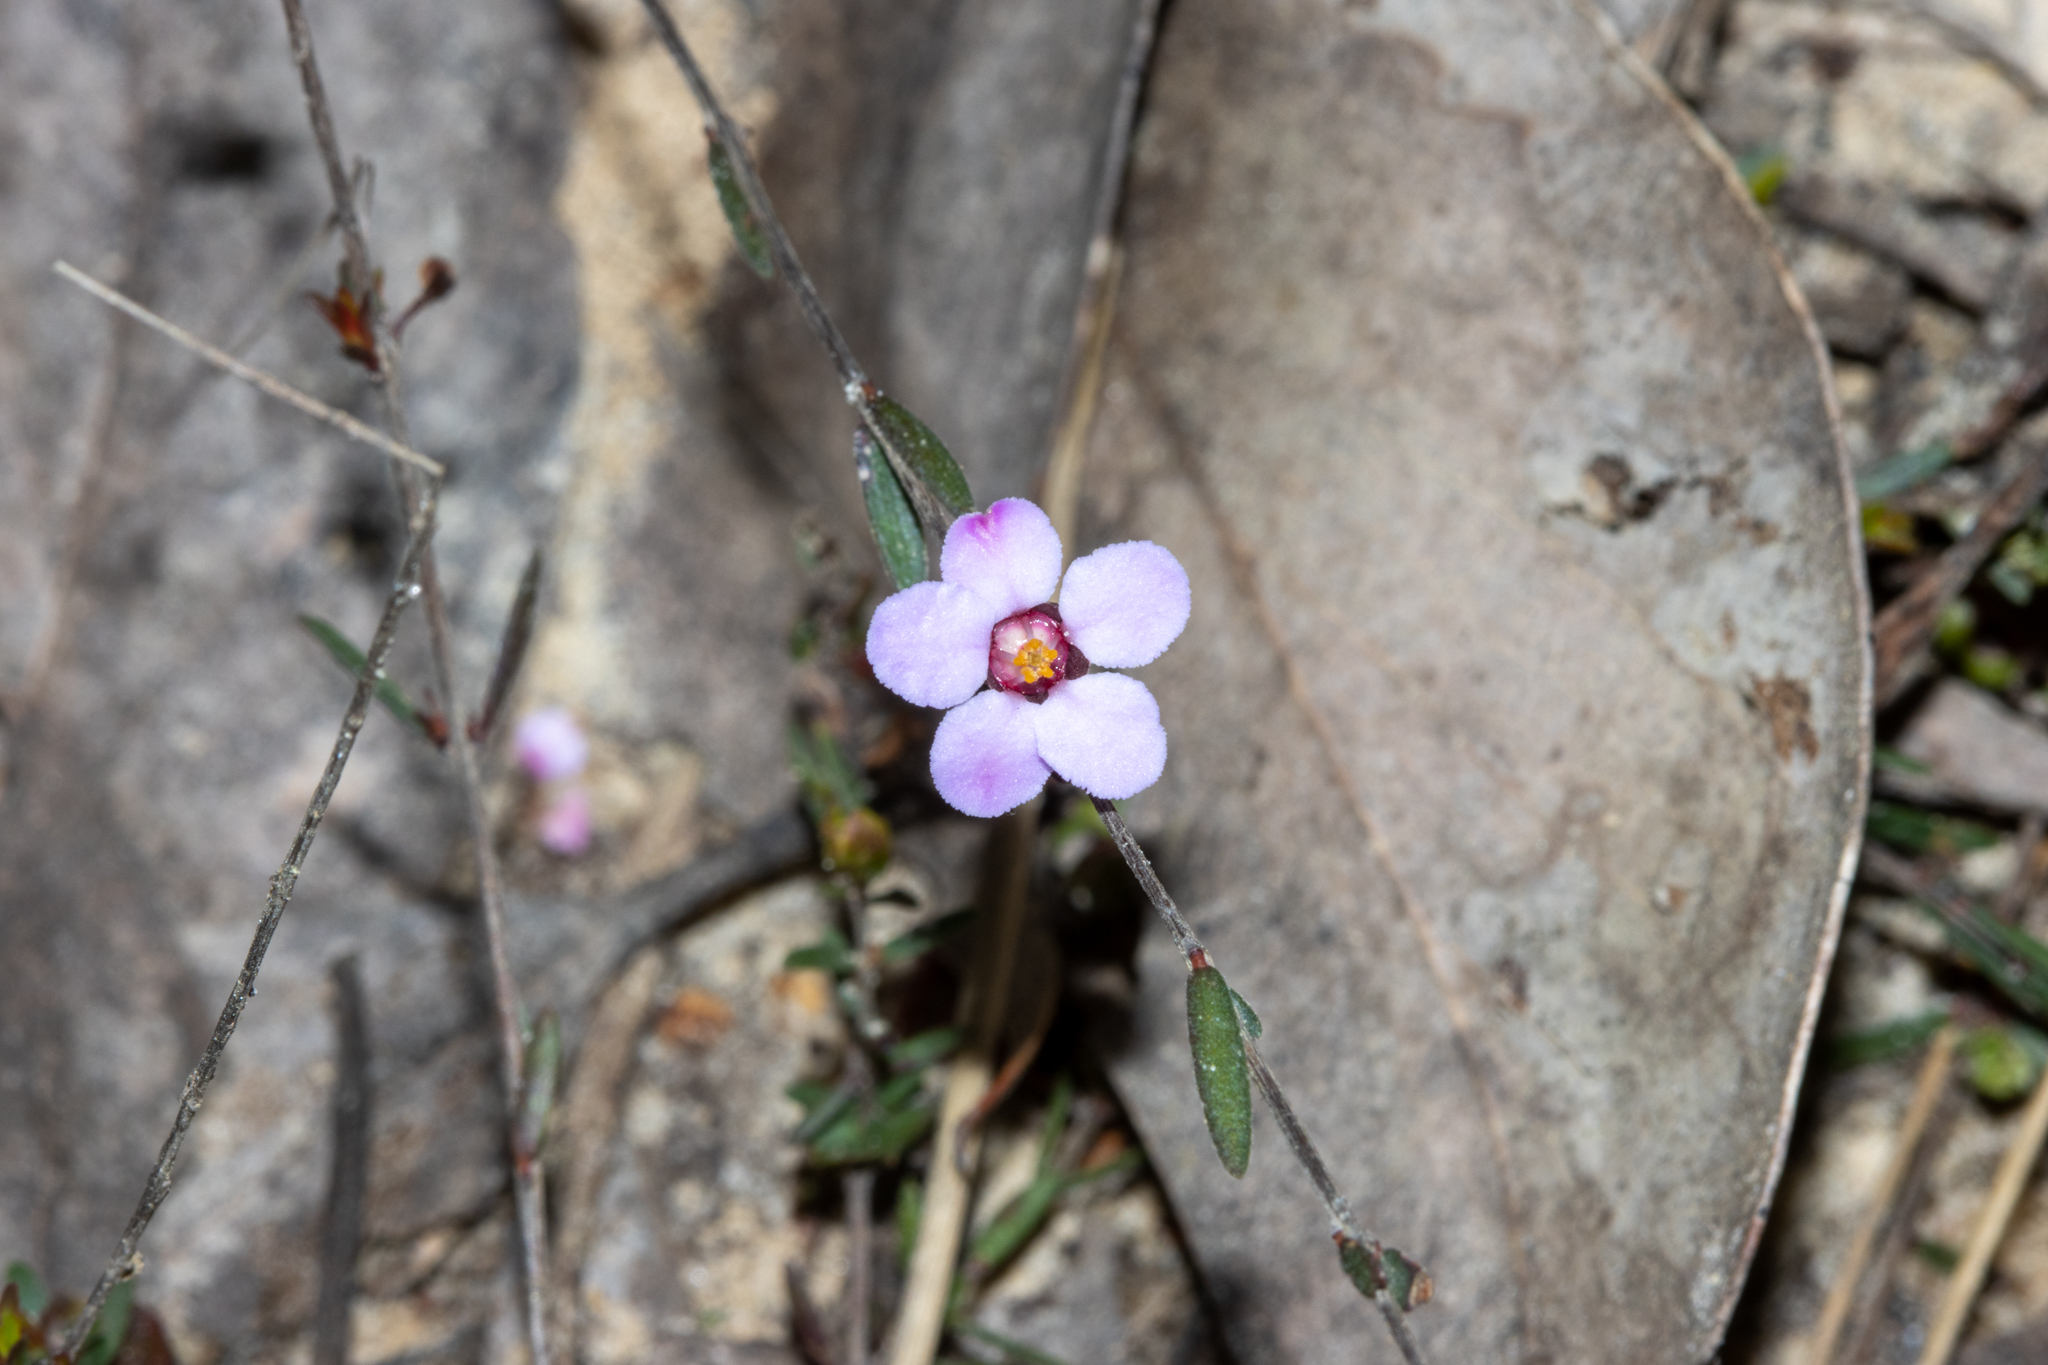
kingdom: Plantae
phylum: Tracheophyta
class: Magnoliopsida
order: Myrtales
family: Myrtaceae
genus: Euryomyrtus
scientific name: Euryomyrtus ramosissima
